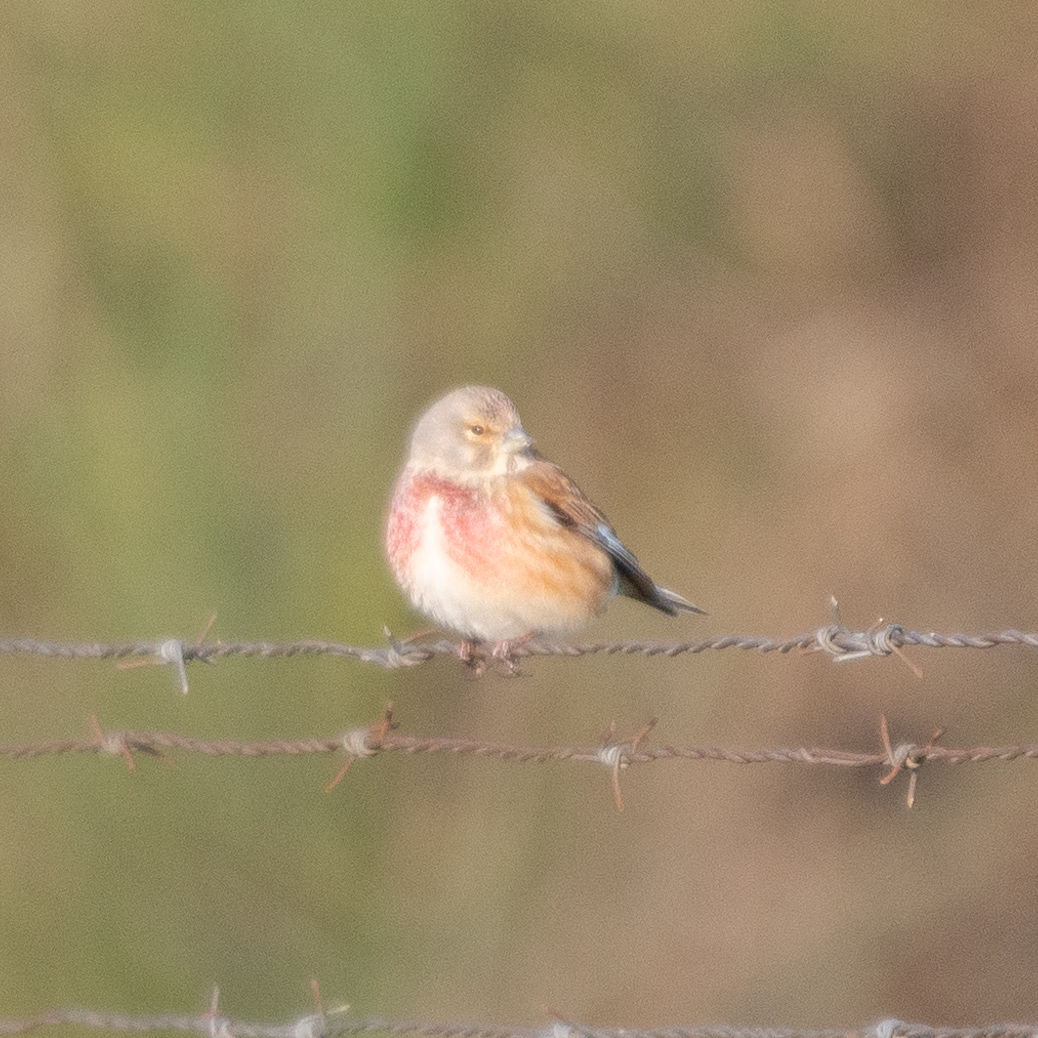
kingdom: Animalia
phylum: Chordata
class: Aves
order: Passeriformes
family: Fringillidae
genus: Linaria
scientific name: Linaria cannabina
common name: Common linnet
